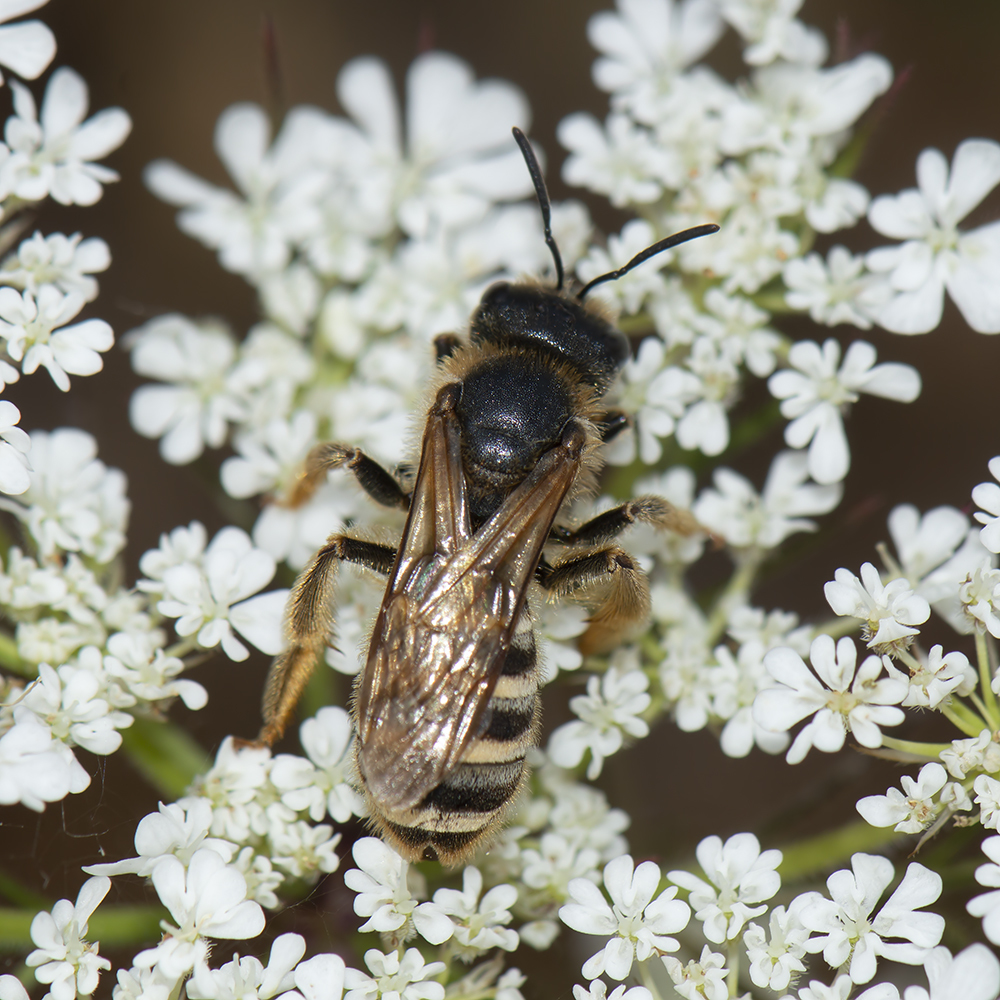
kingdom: Animalia
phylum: Arthropoda
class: Insecta
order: Hymenoptera
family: Halictidae
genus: Halictus
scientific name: Halictus scabiosae
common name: Great banded furrow bee
